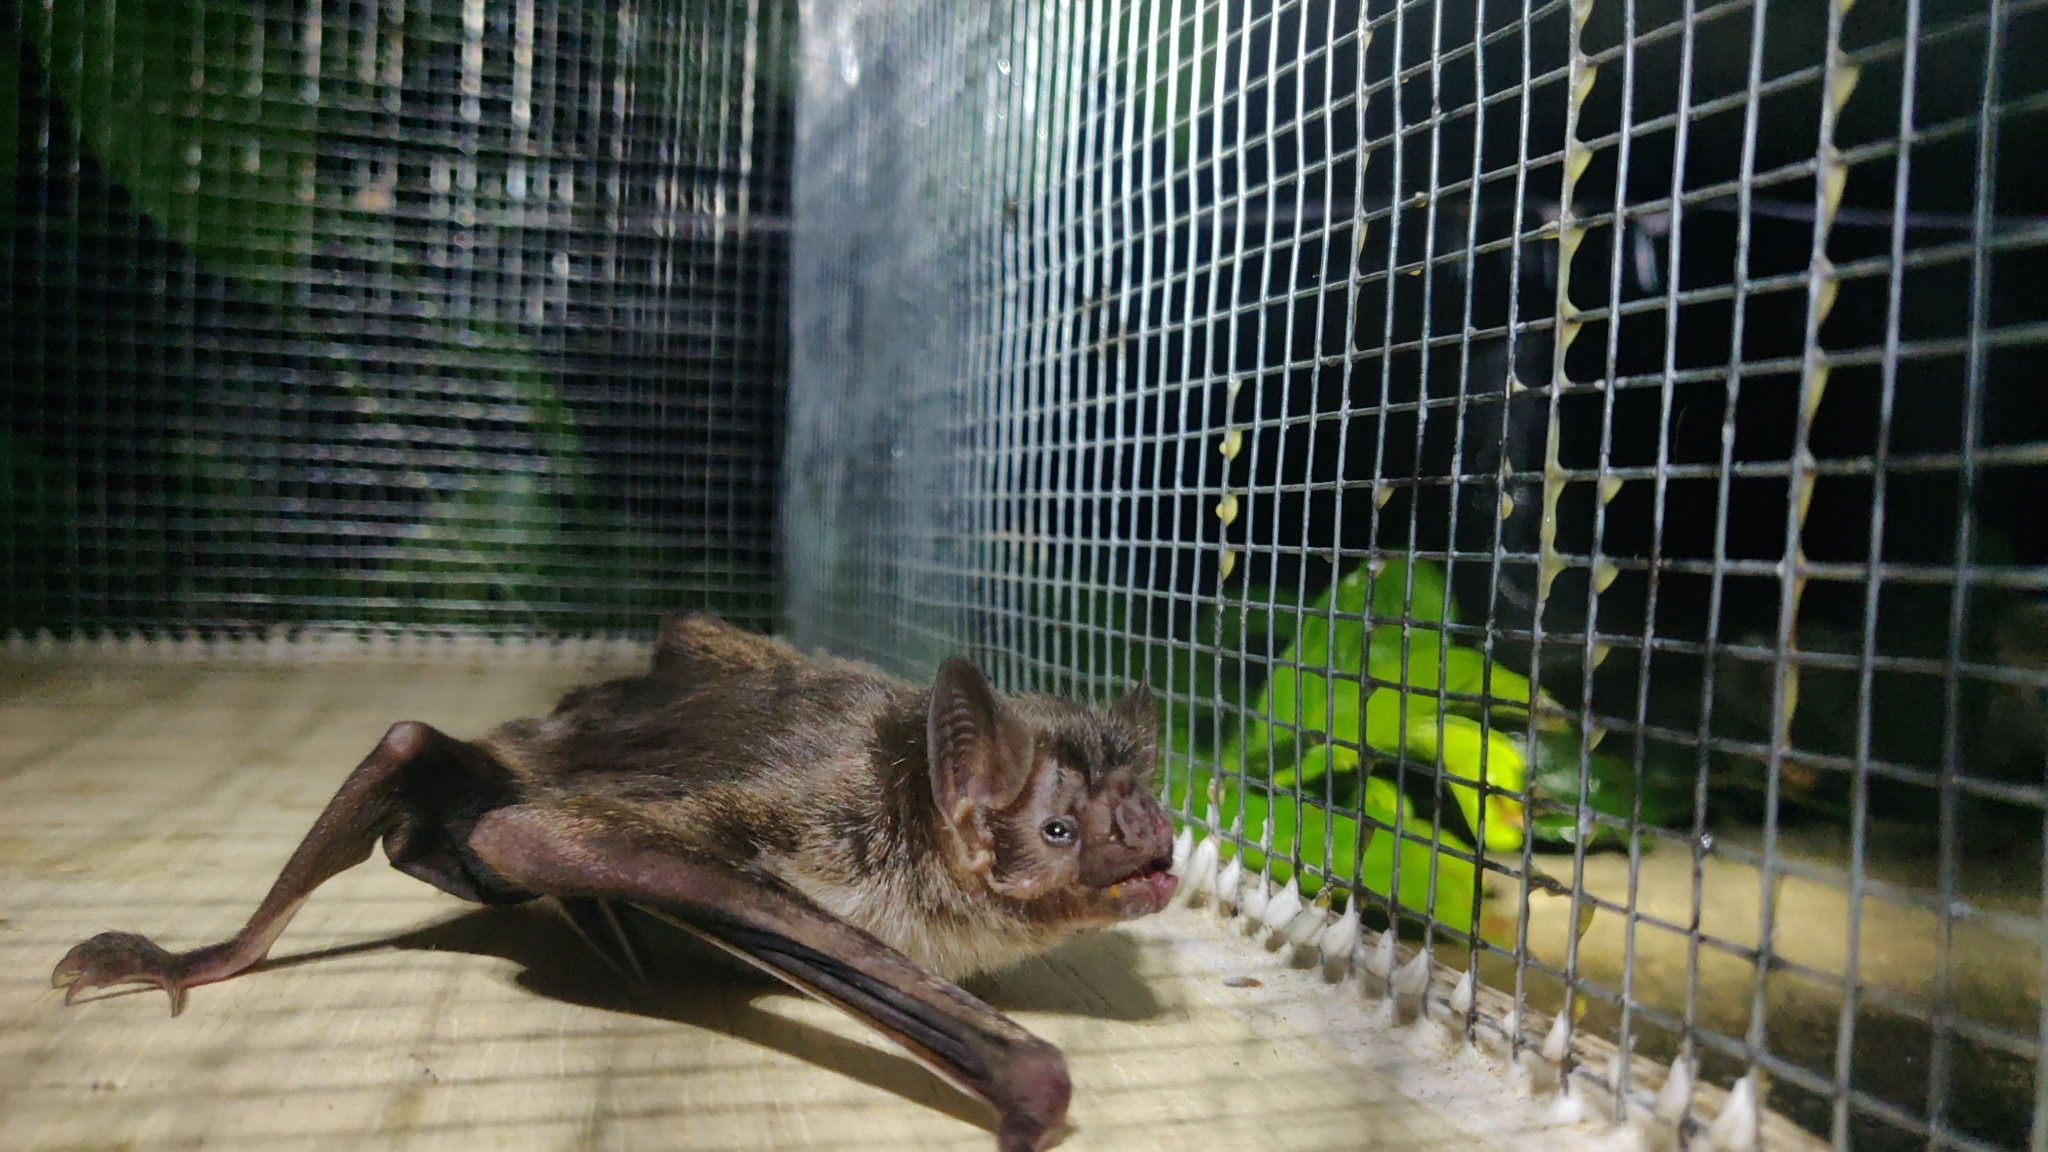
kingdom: Animalia
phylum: Chordata
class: Mammalia
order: Chiroptera
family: Phyllostomidae
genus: Desmodus
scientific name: Desmodus rotundus
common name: Common vampire bat
